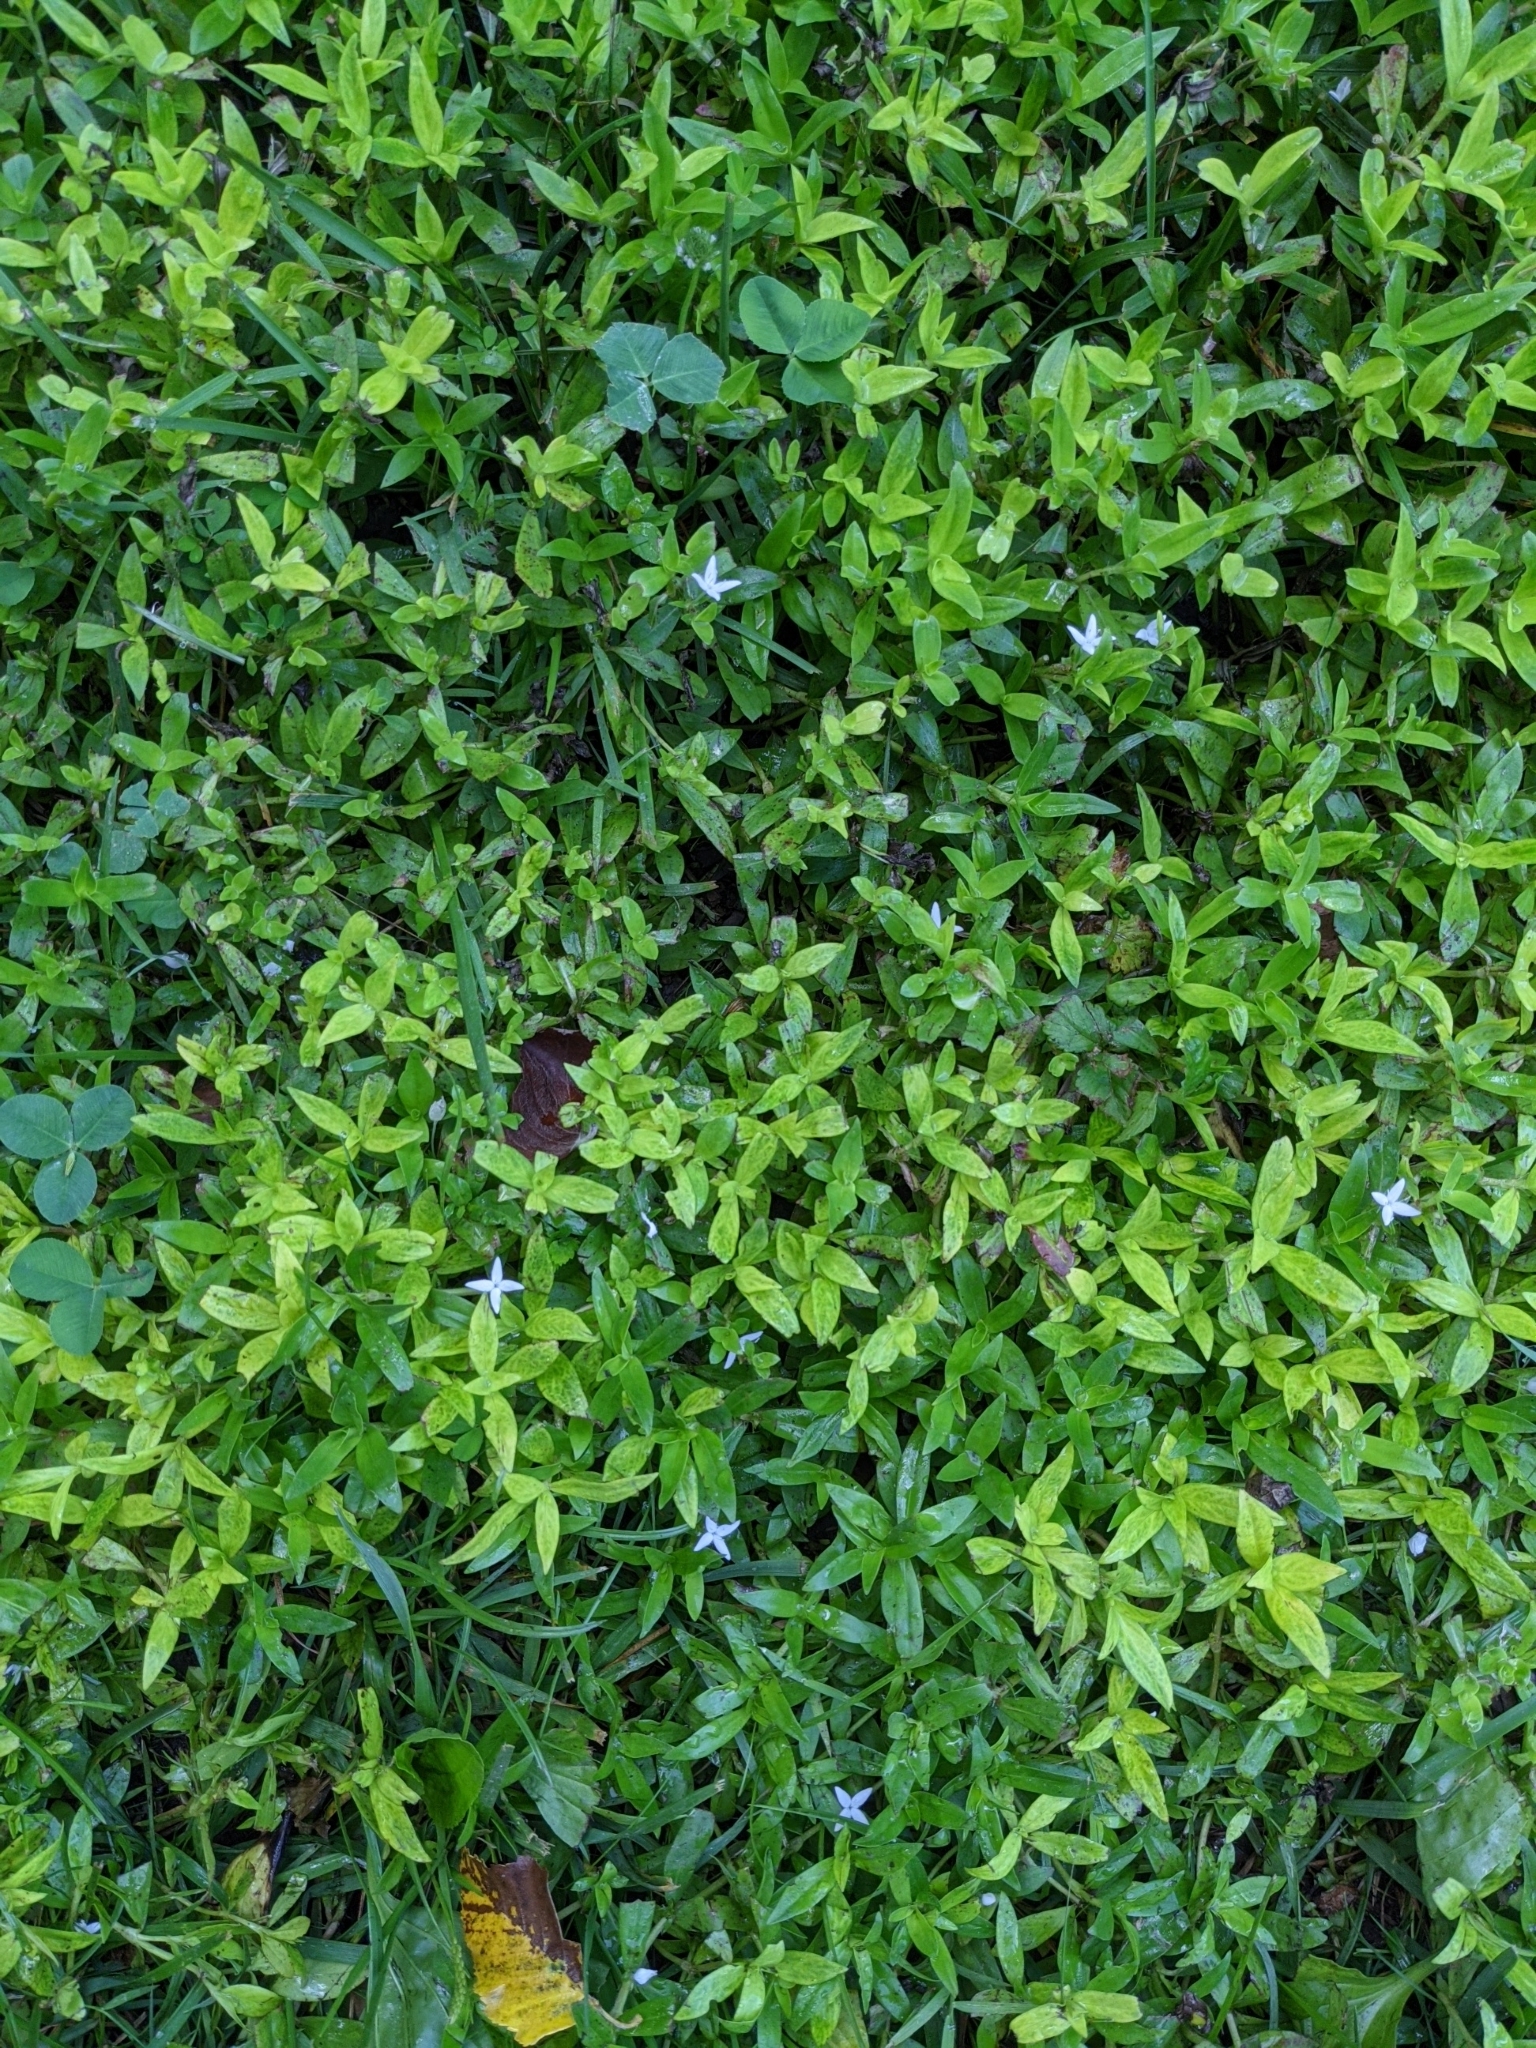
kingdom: Plantae
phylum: Tracheophyta
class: Magnoliopsida
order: Gentianales
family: Rubiaceae
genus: Diodia
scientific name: Diodia virginiana
